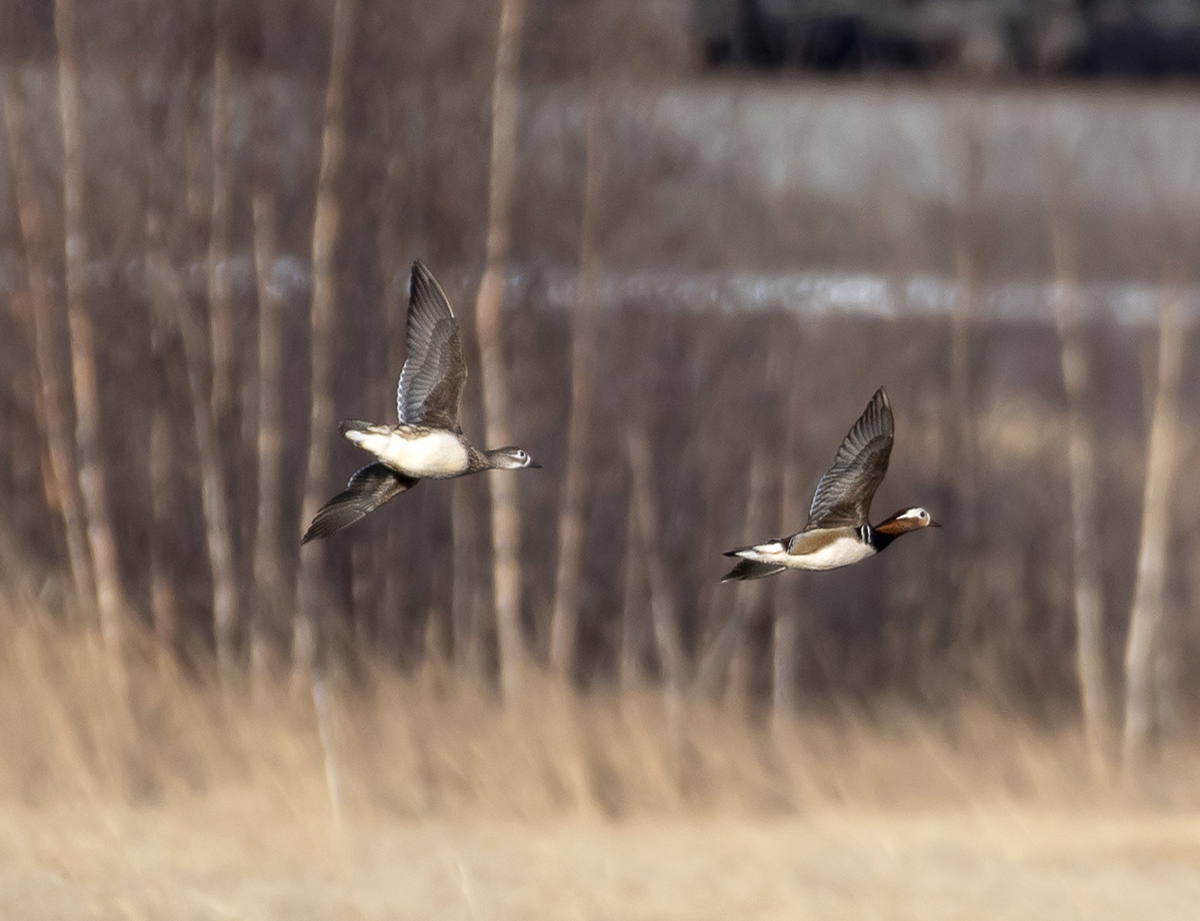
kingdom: Animalia
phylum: Chordata
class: Aves
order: Anseriformes
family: Anatidae
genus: Aix
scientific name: Aix galericulata
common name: Mandarin duck
